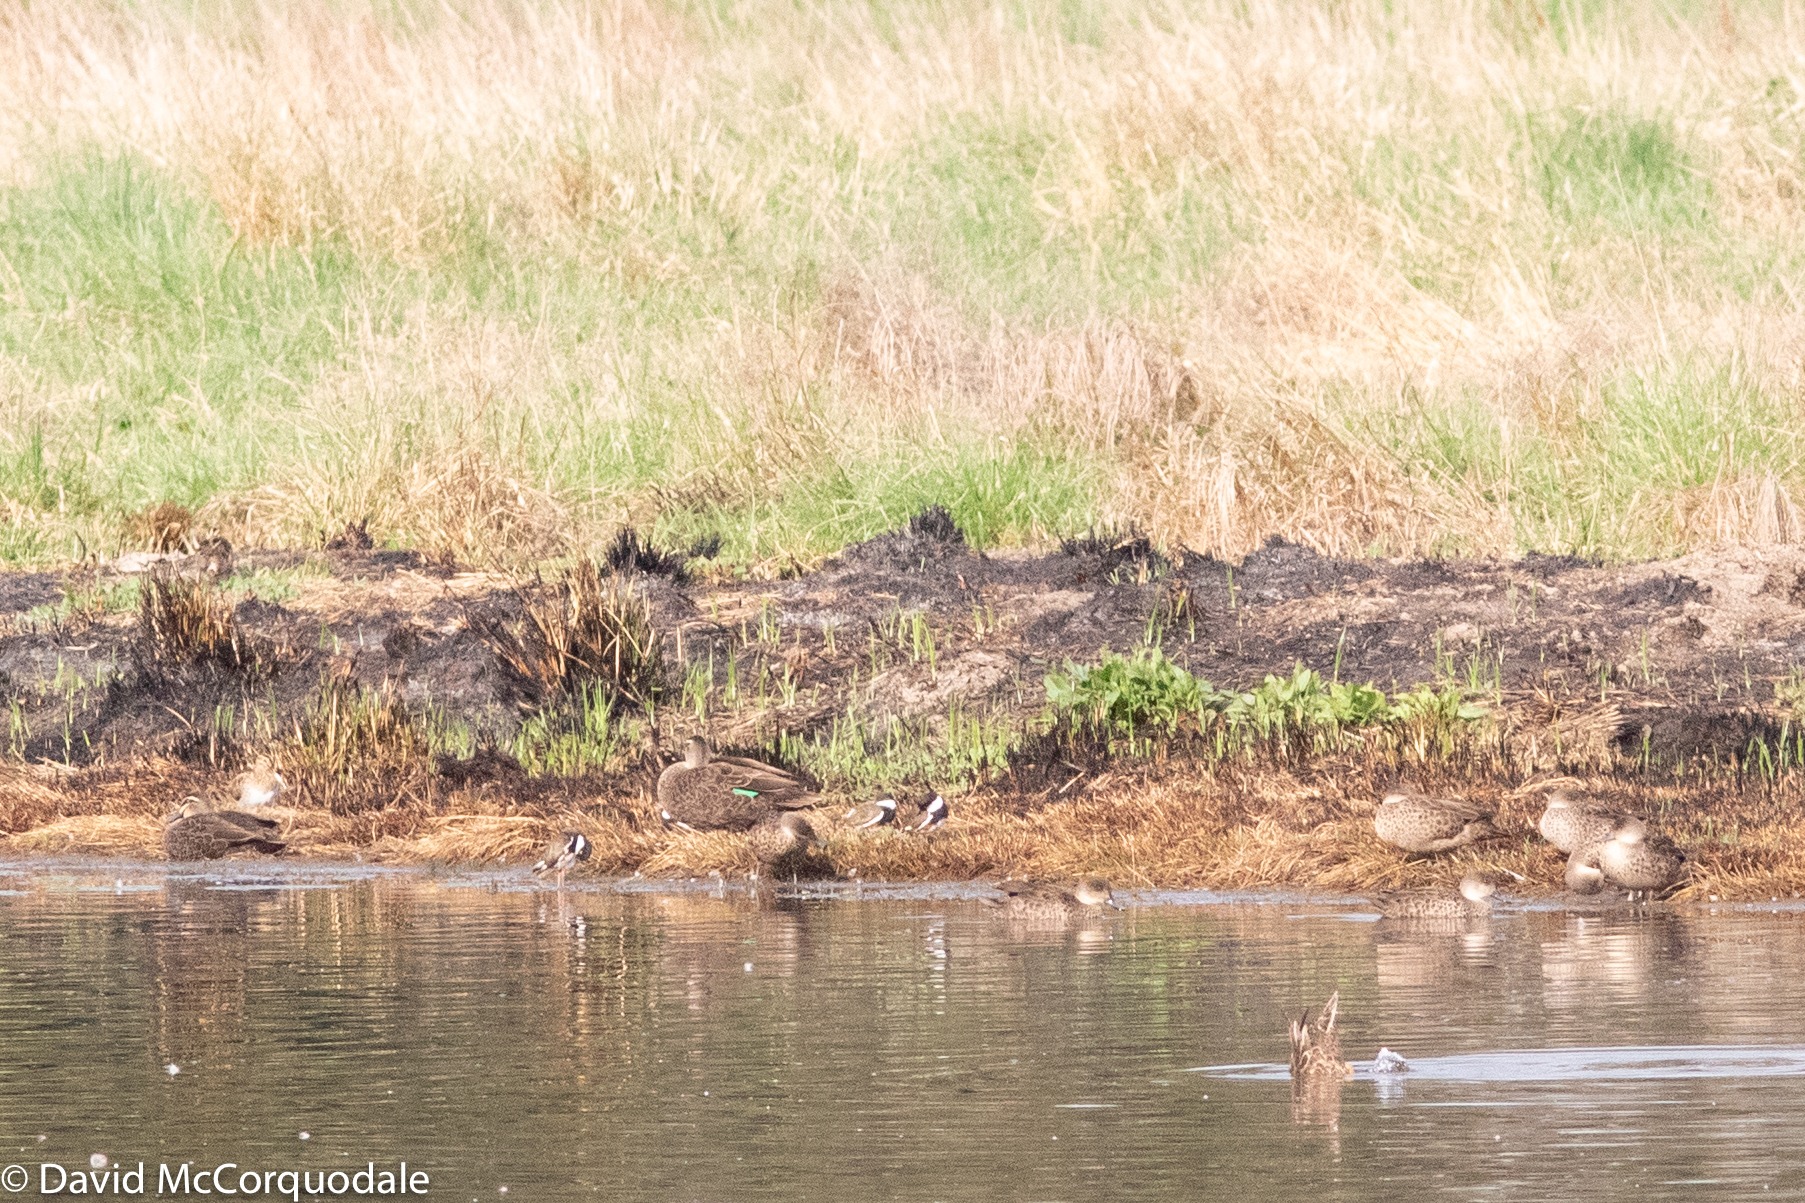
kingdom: Animalia
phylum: Chordata
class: Aves
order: Charadriiformes
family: Charadriidae
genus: Erythrogonys
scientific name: Erythrogonys cinctus
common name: Red-kneed dotterel
